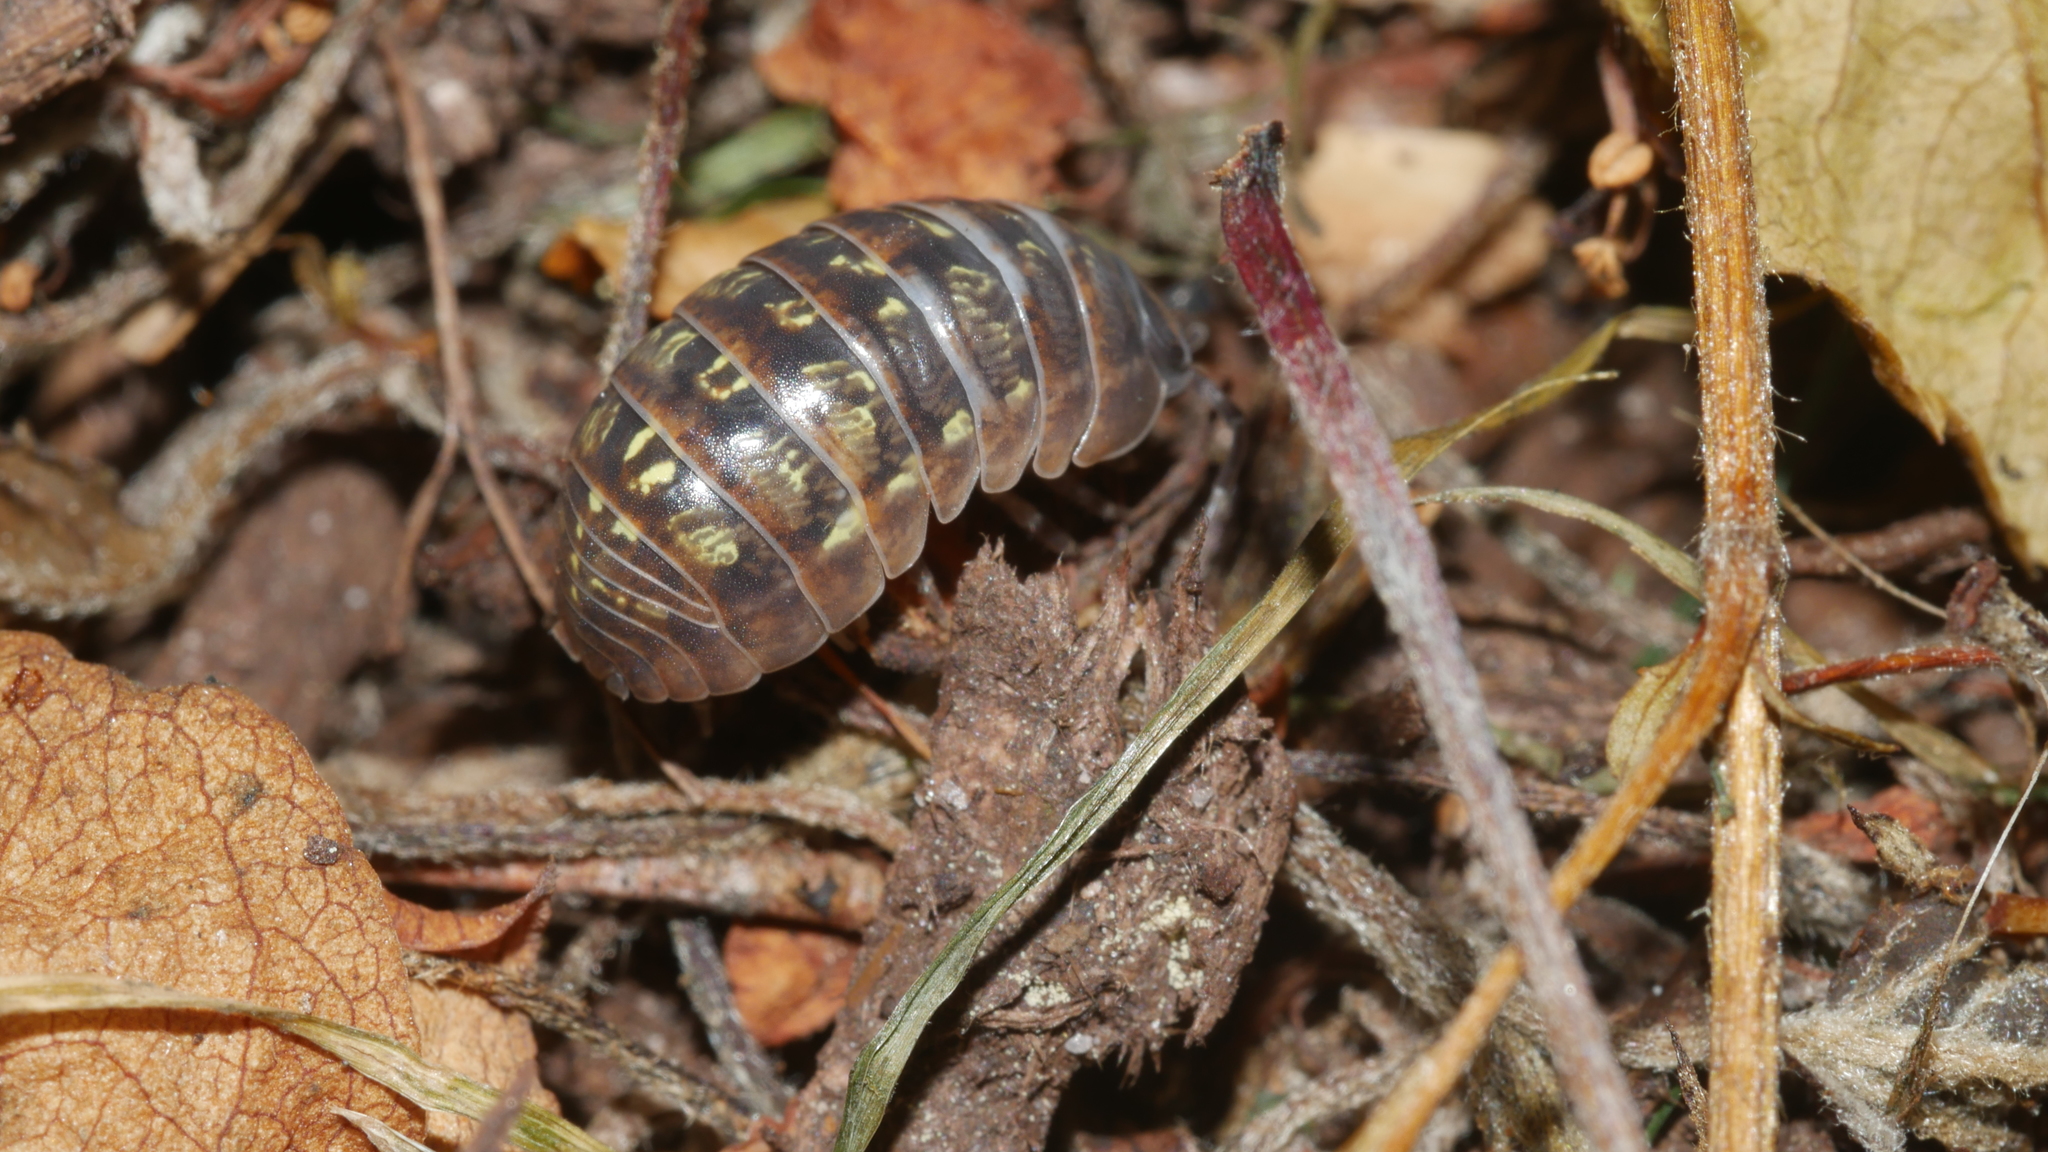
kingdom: Animalia
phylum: Arthropoda
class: Malacostraca
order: Isopoda
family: Armadillidiidae
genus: Armadillidium
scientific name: Armadillidium vulgare
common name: Common pill woodlouse
